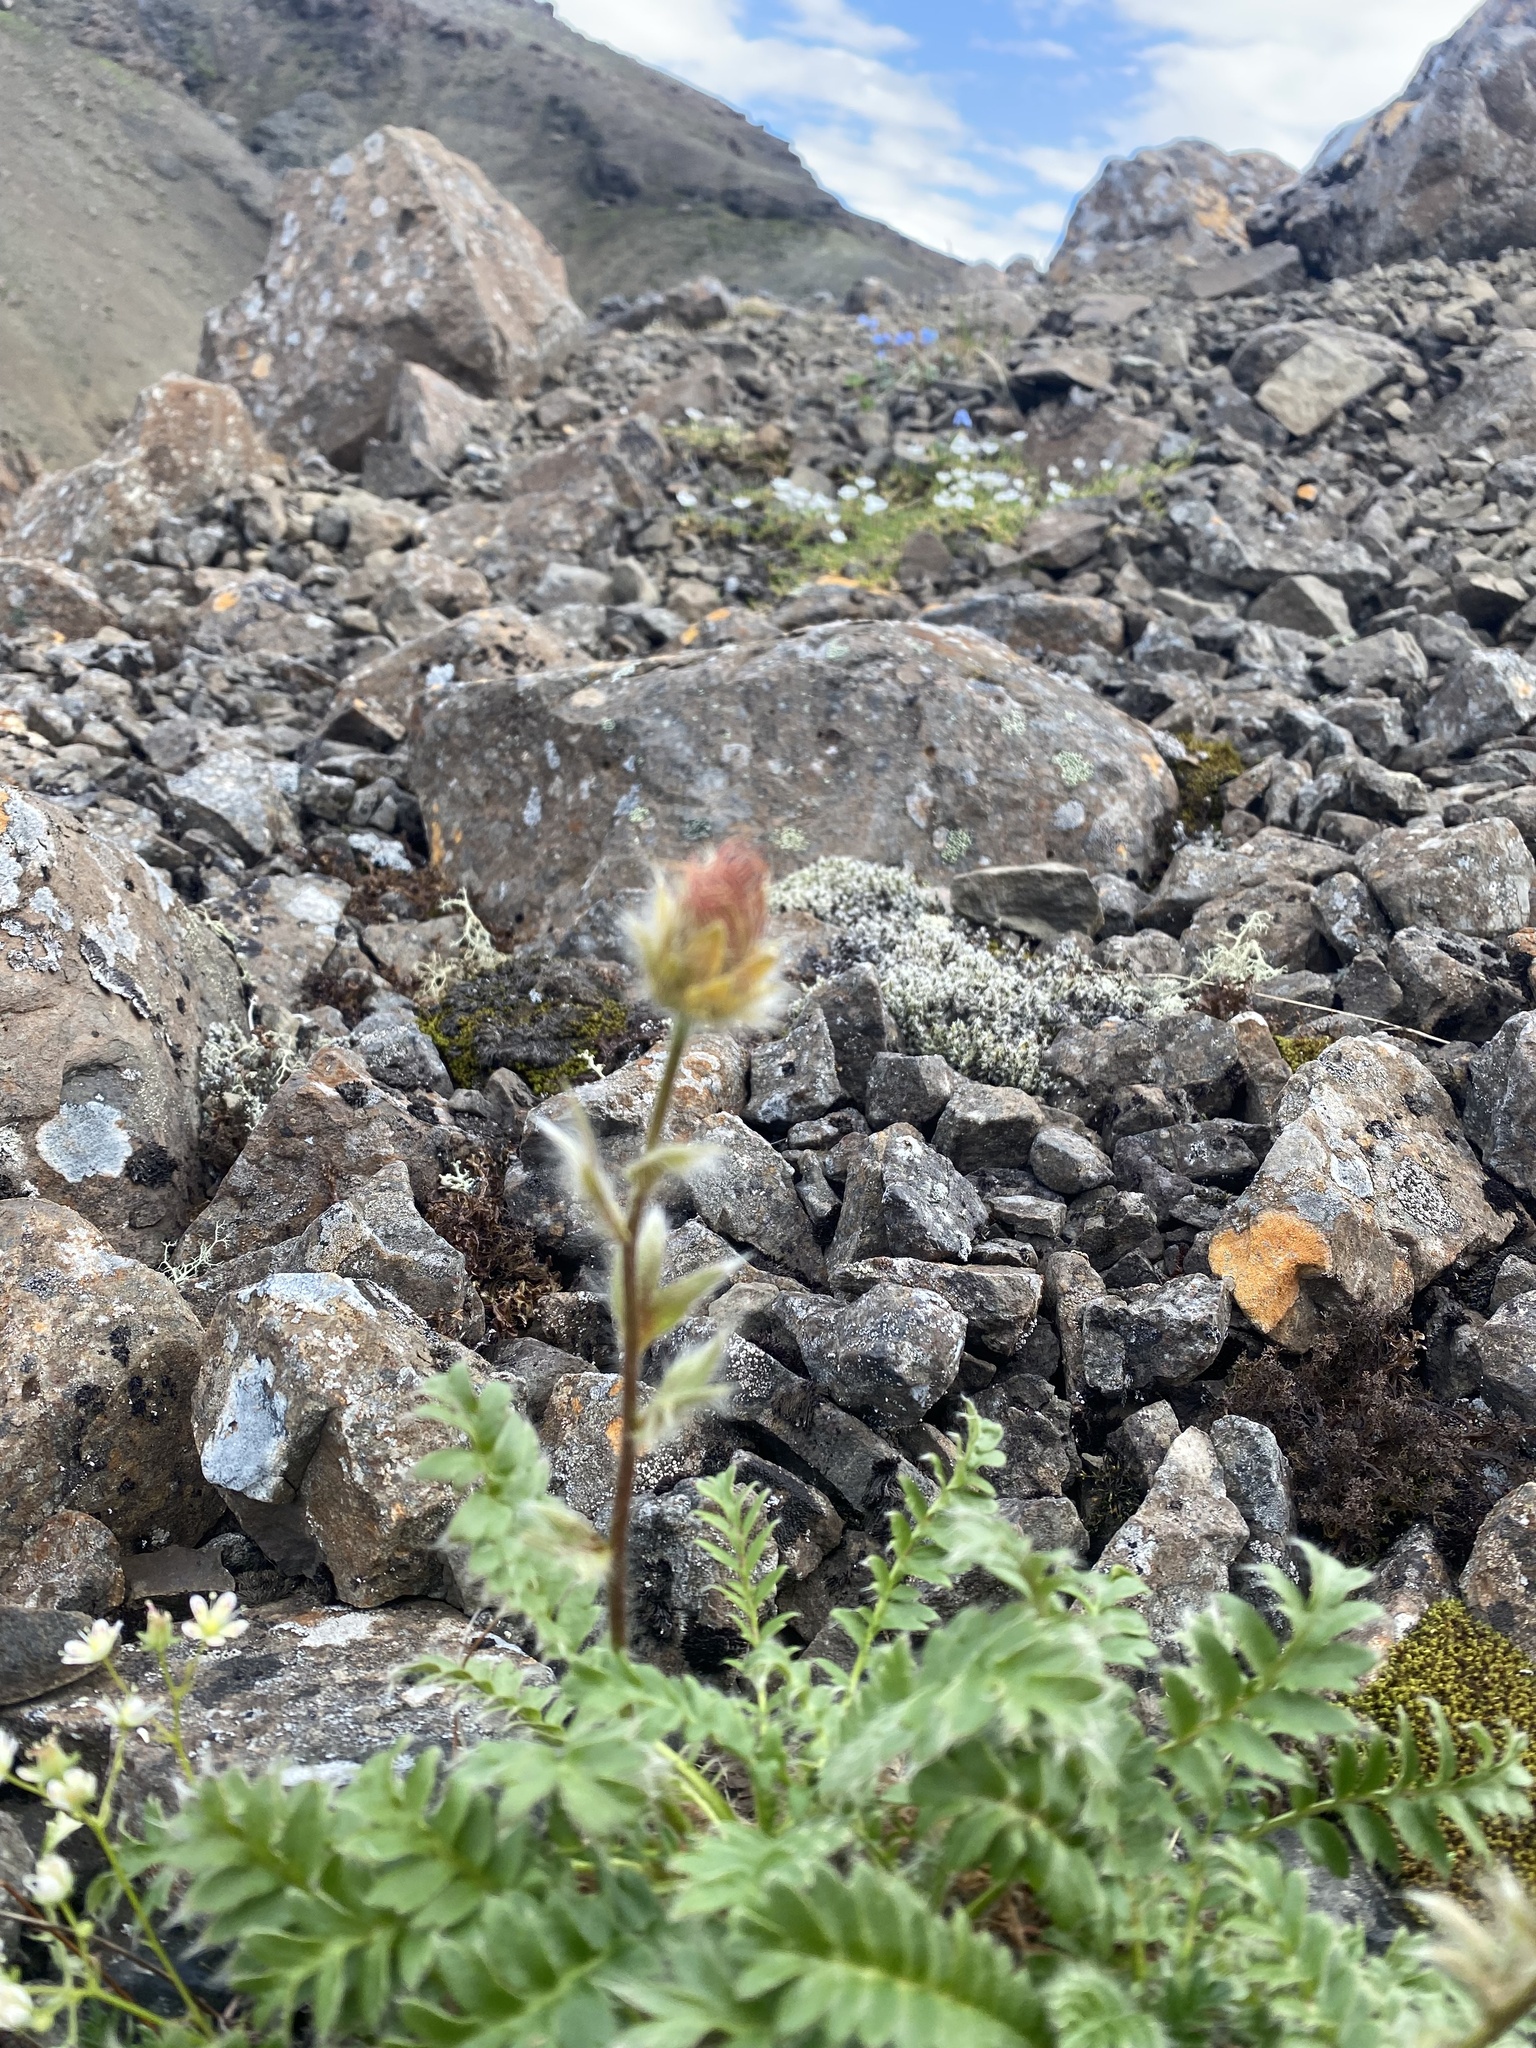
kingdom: Plantae
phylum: Tracheophyta
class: Magnoliopsida
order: Rosales
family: Rosaceae
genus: Geum
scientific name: Geum glaciale
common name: Glacier avens
